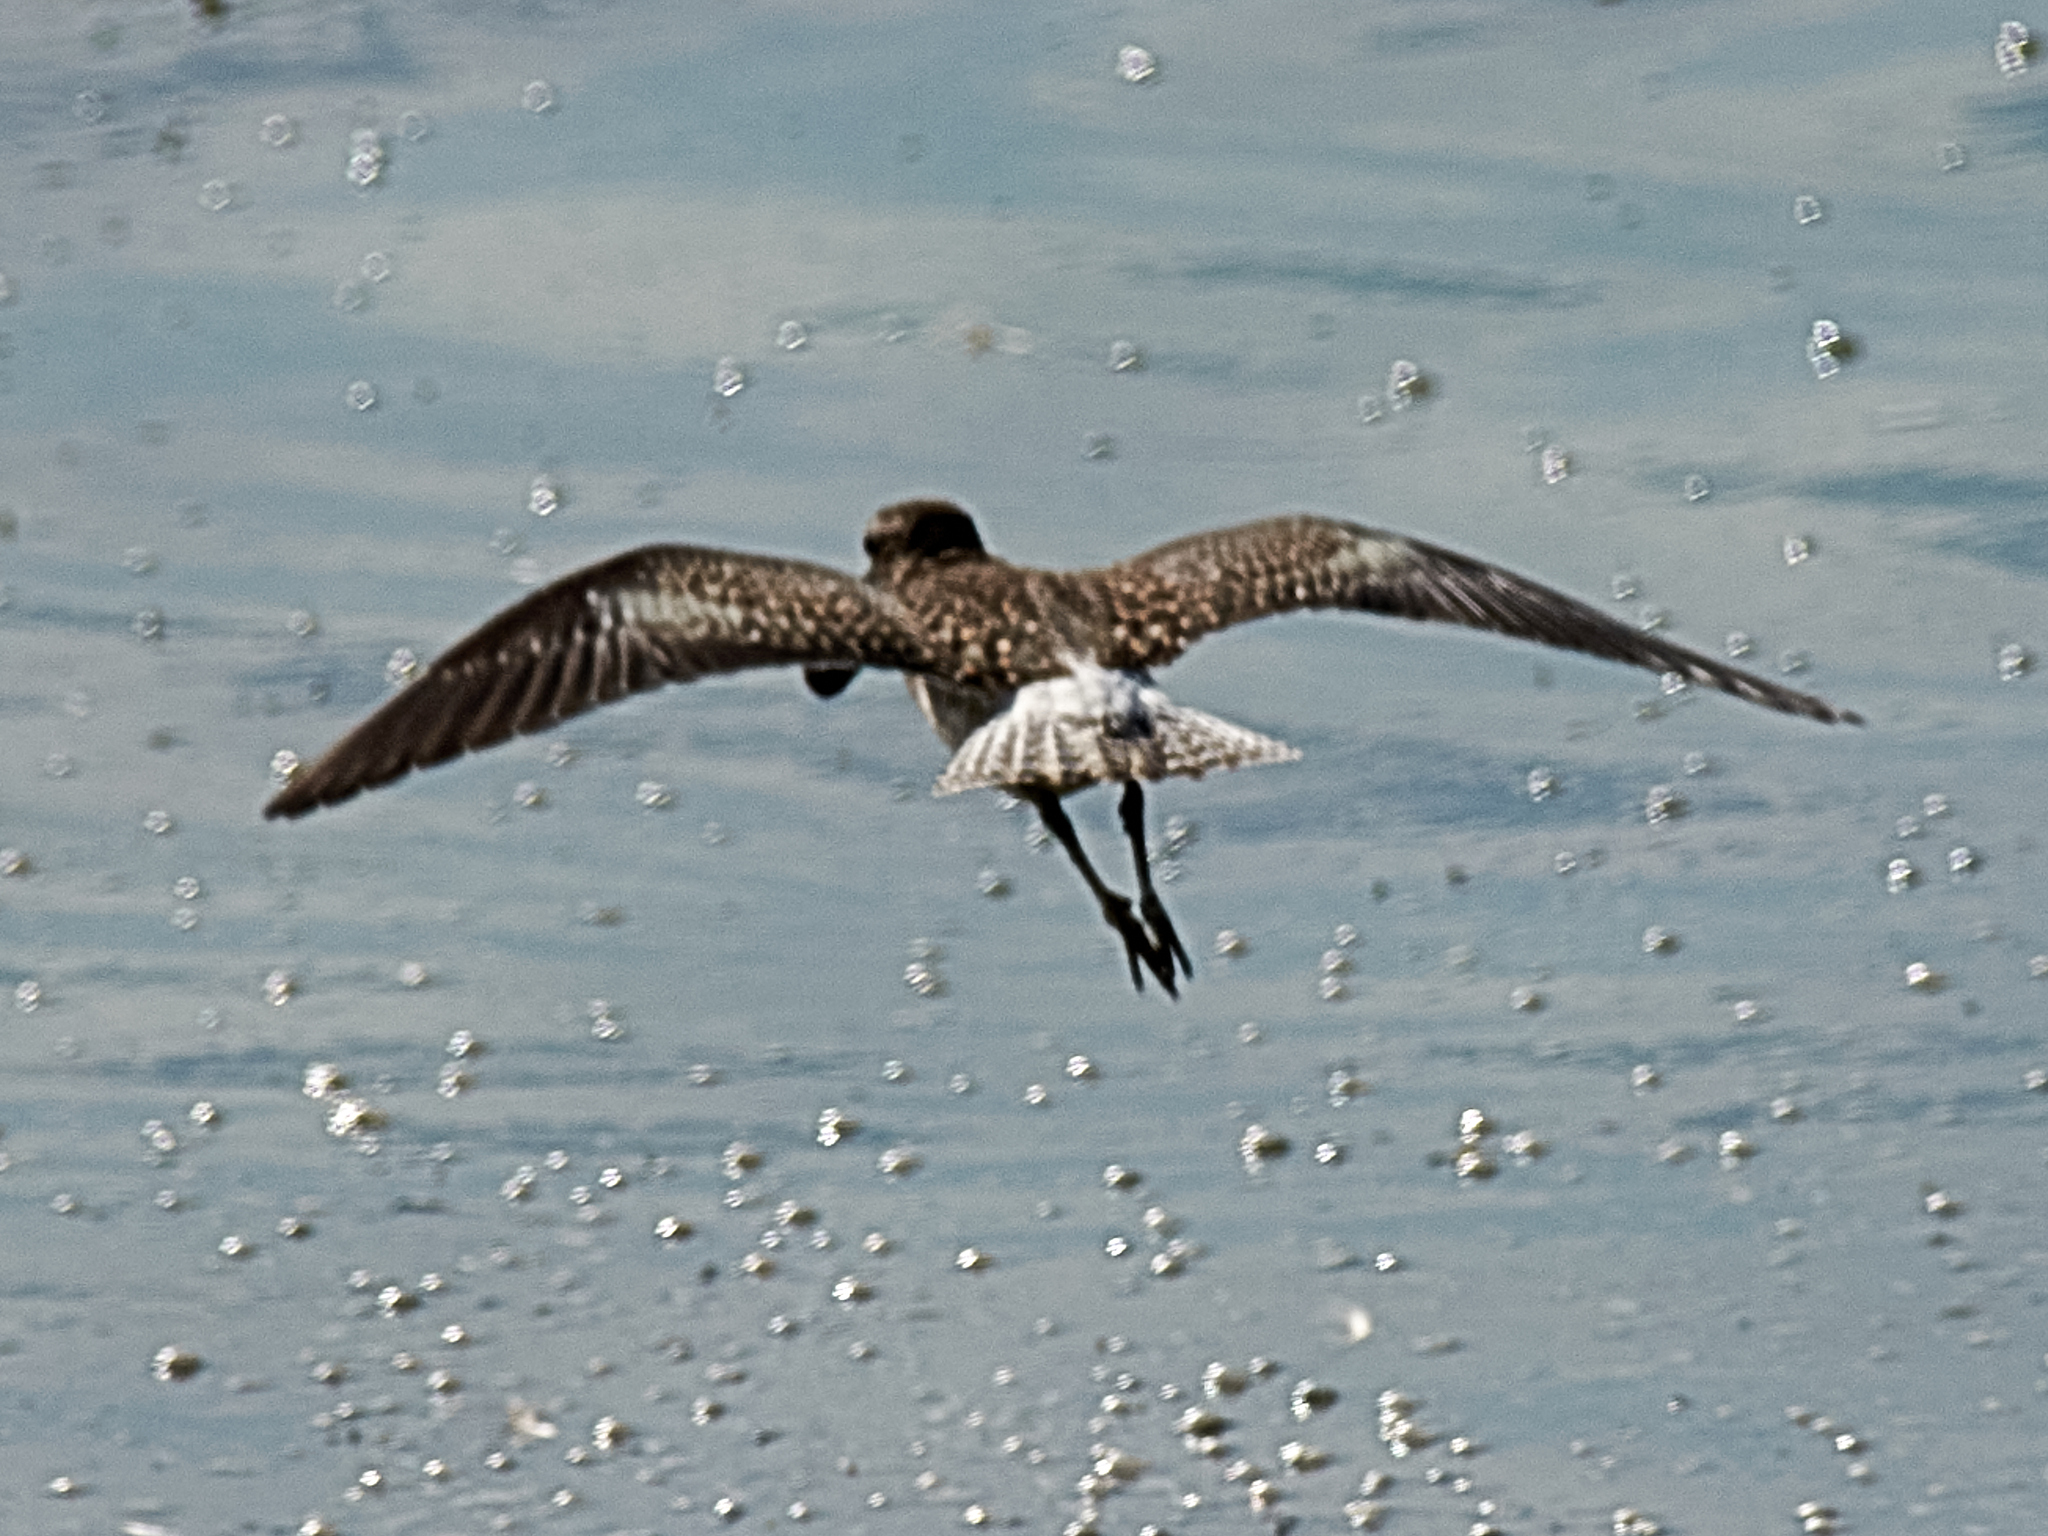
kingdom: Animalia
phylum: Chordata
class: Aves
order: Charadriiformes
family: Scolopacidae
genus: Tringa
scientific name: Tringa glareola
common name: Wood sandpiper
